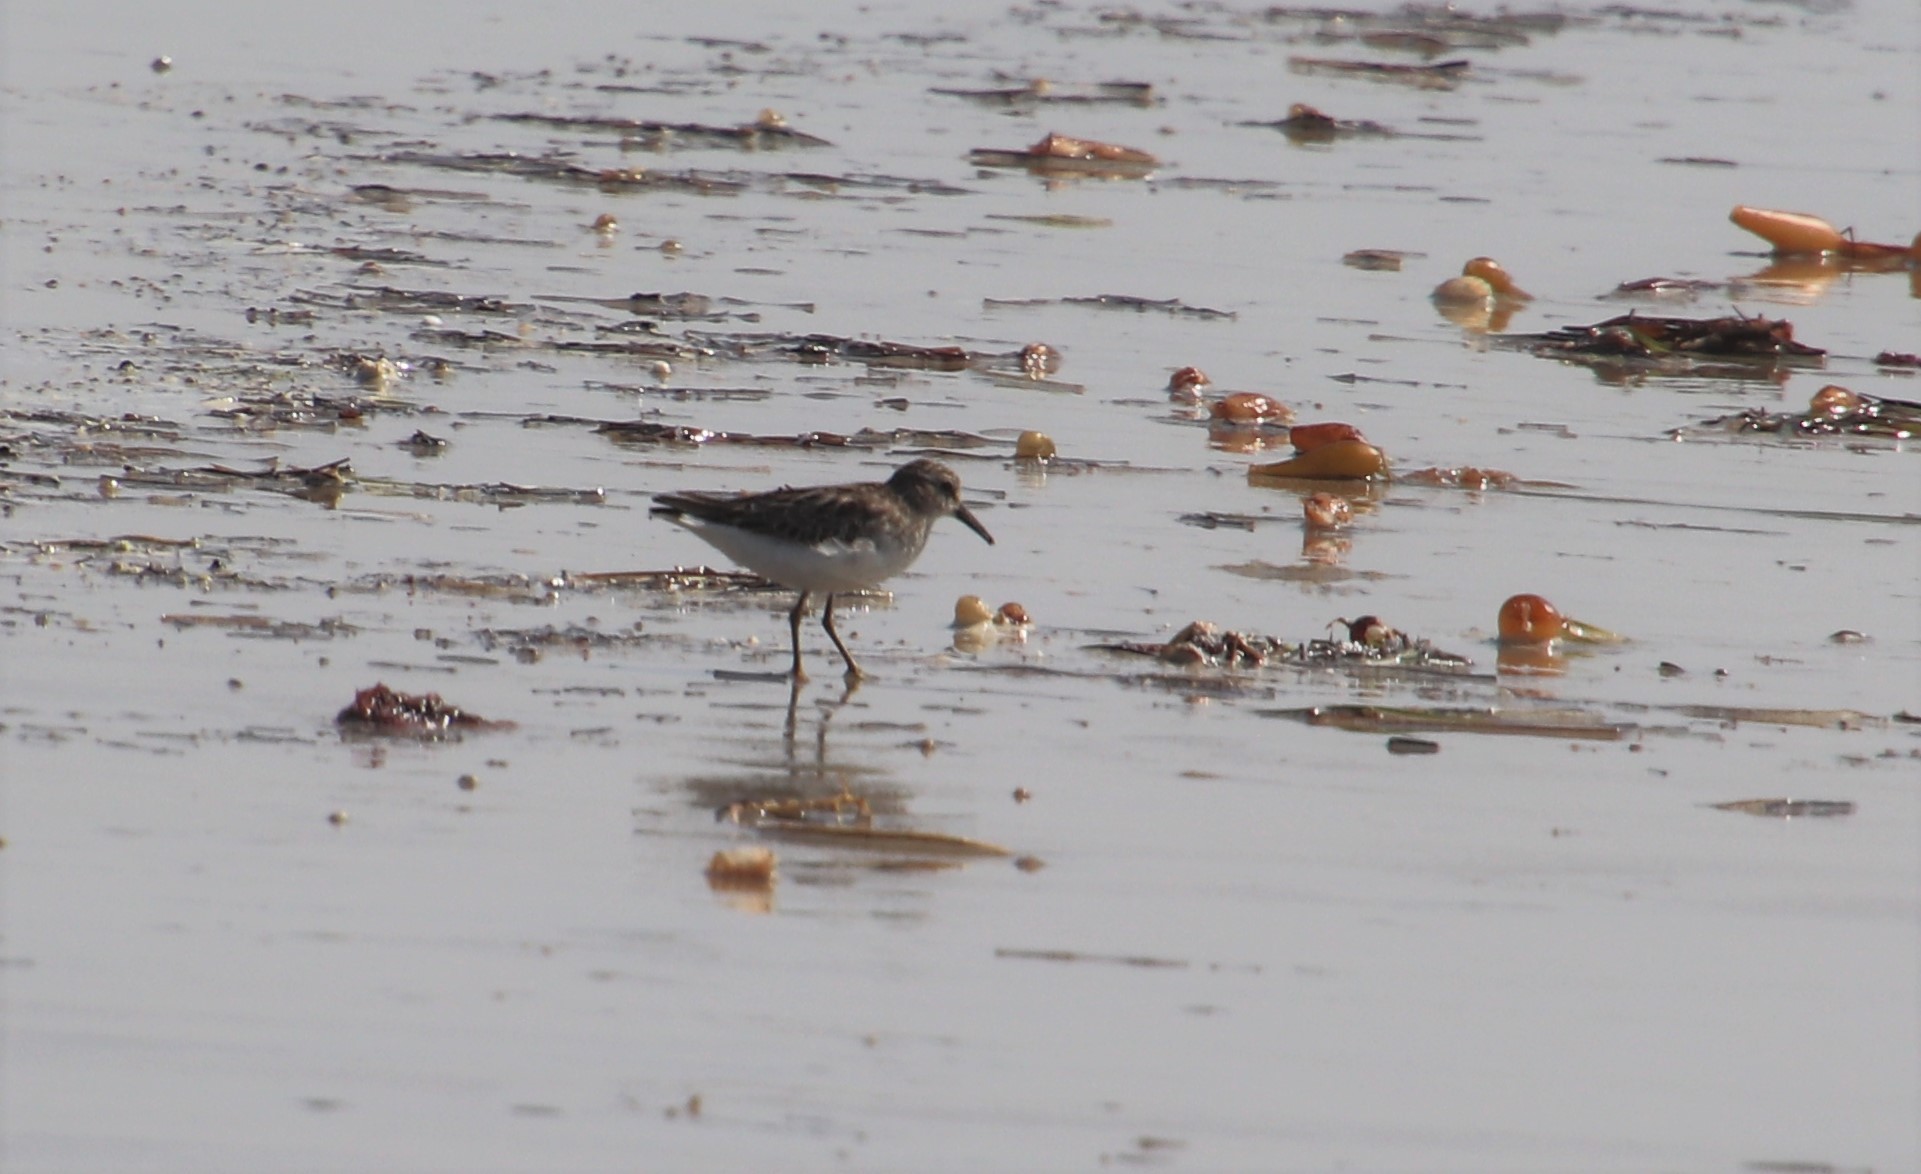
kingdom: Animalia
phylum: Chordata
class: Aves
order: Charadriiformes
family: Scolopacidae
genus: Calidris
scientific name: Calidris minutilla
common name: Least sandpiper
